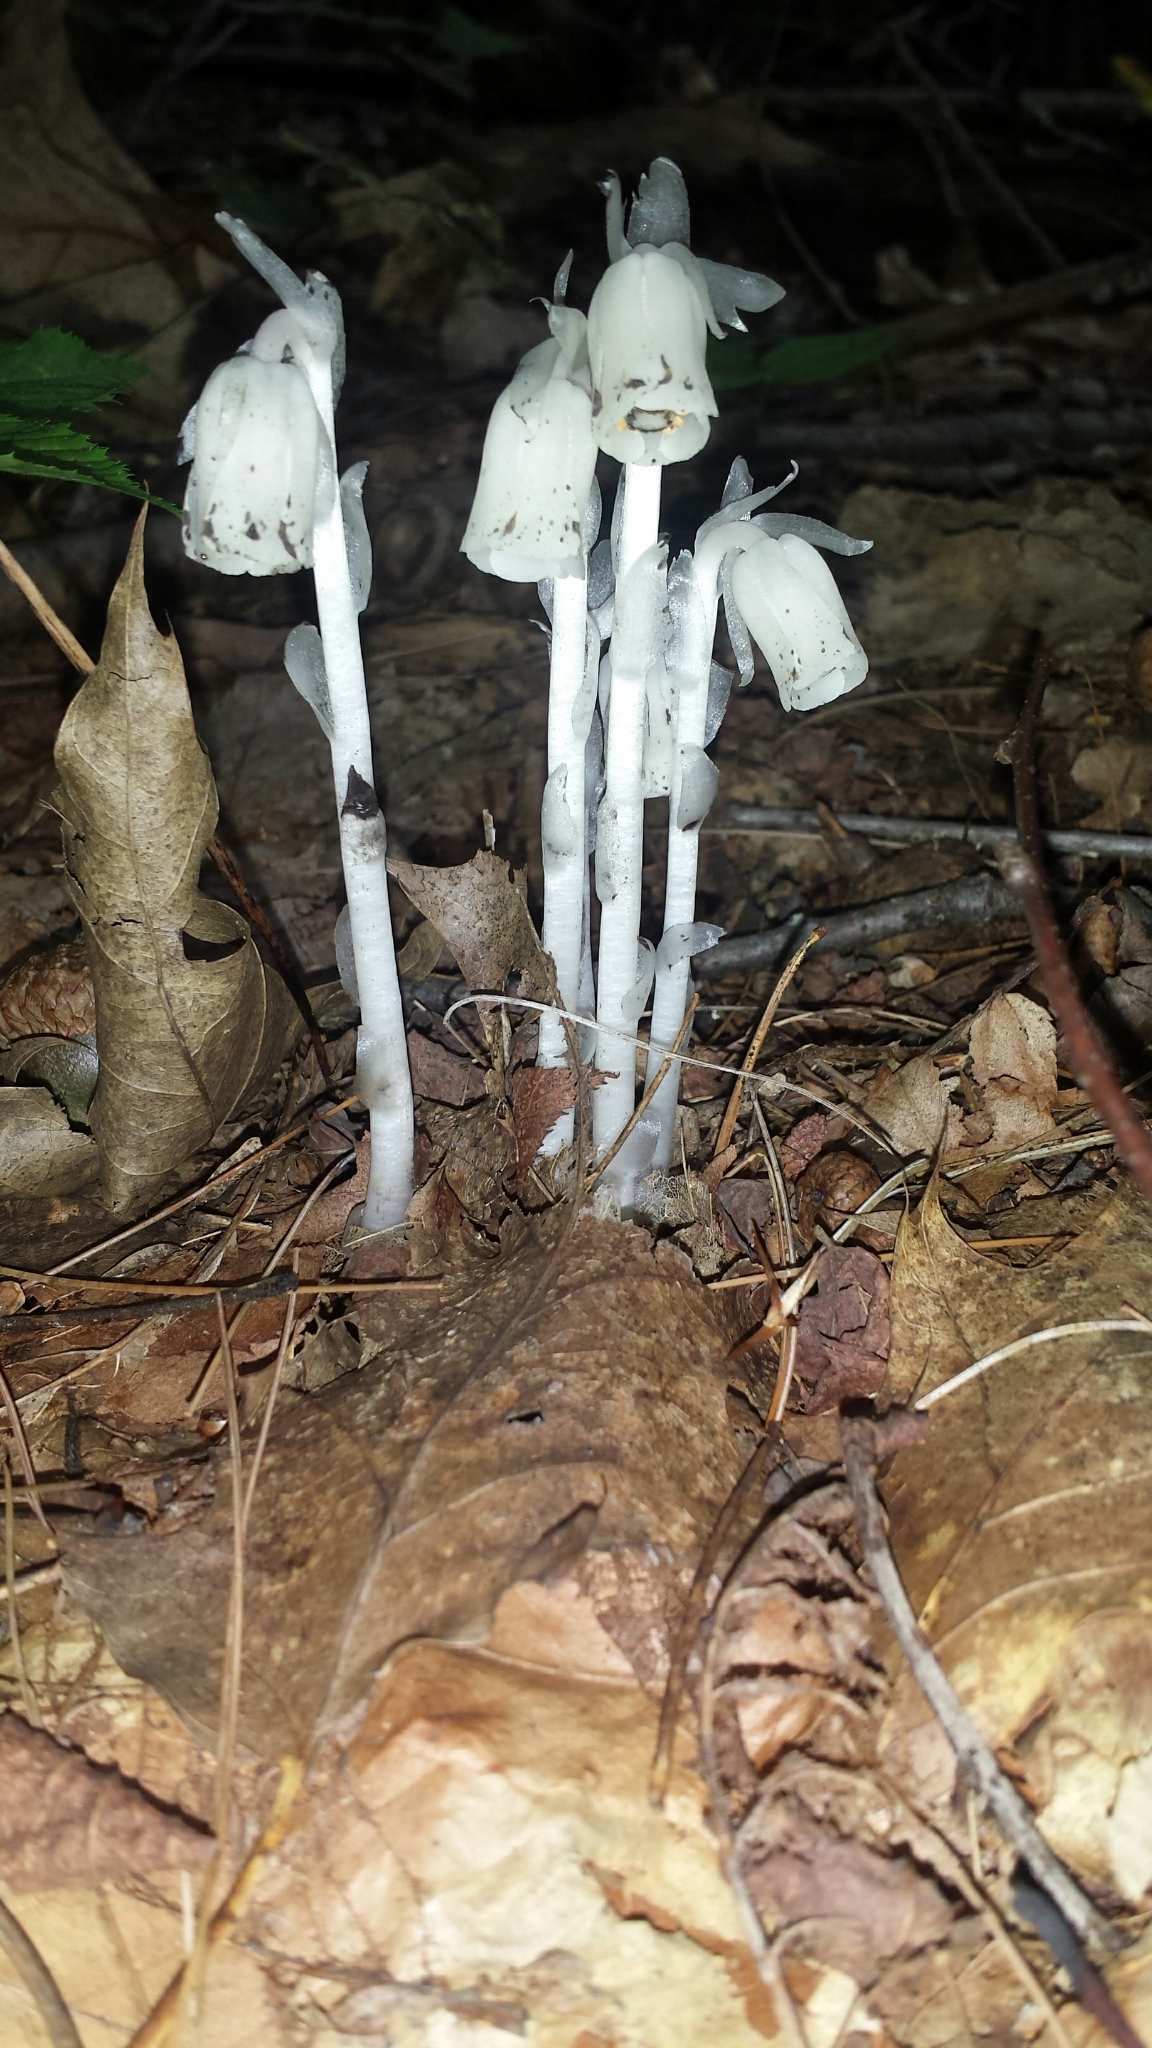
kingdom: Plantae
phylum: Tracheophyta
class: Magnoliopsida
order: Ericales
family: Ericaceae
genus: Monotropa
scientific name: Monotropa uniflora
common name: Convulsion root
